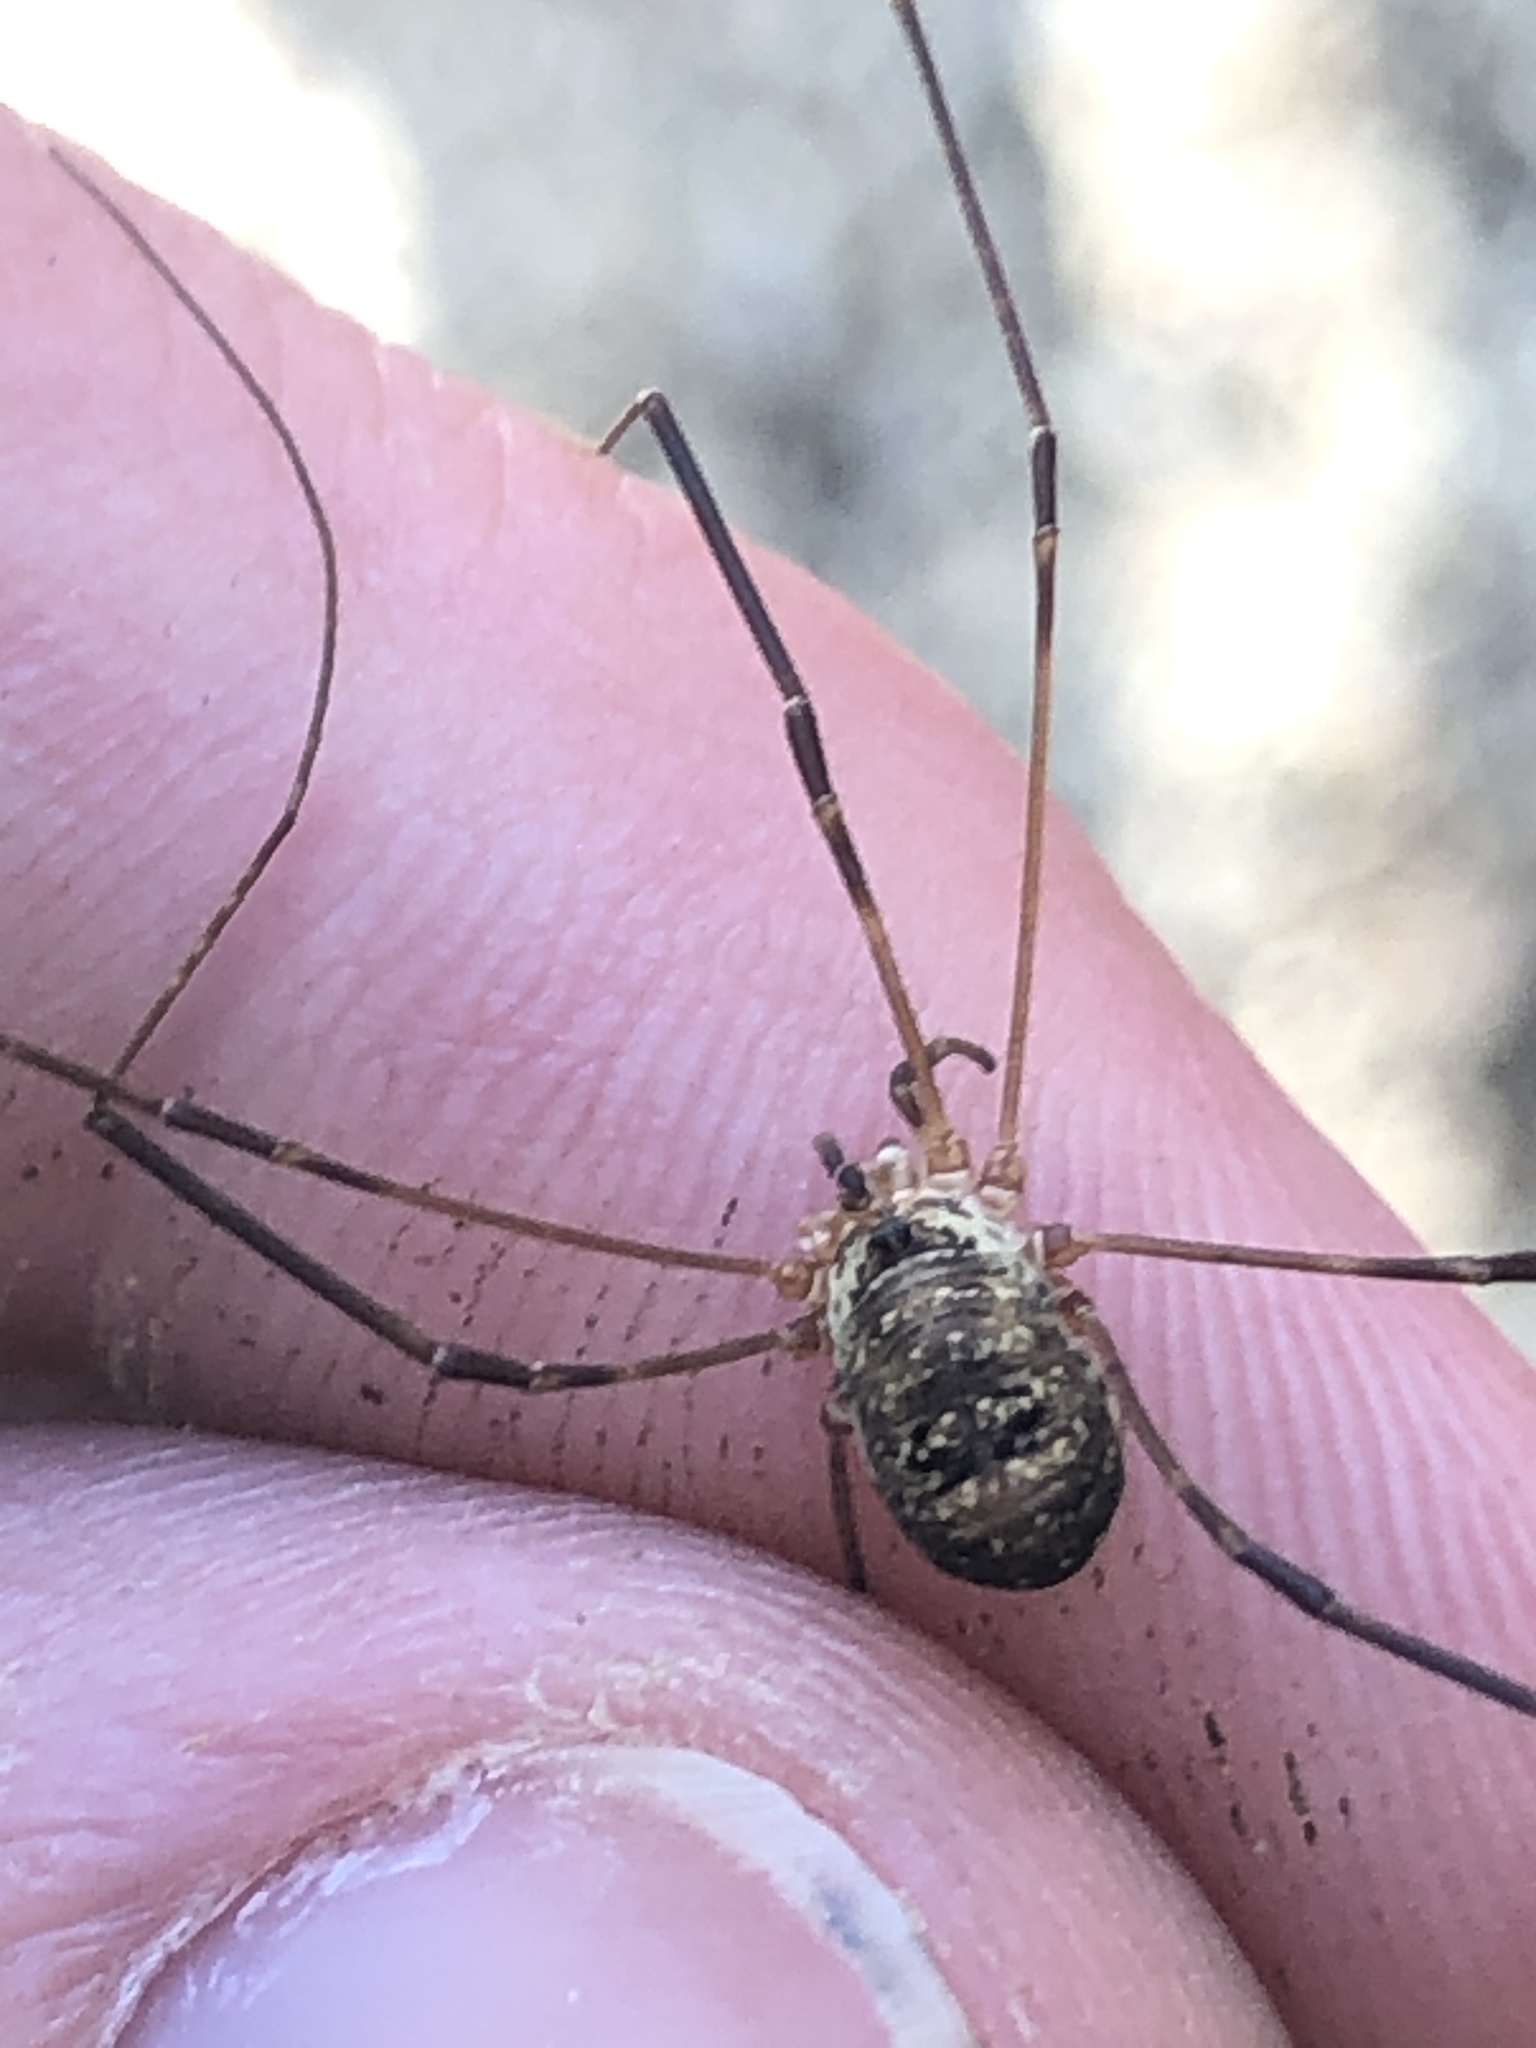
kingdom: Animalia
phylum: Arthropoda
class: Arachnida
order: Opiliones
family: Phalangiidae
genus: Amilenus
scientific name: Amilenus aurantiacus
